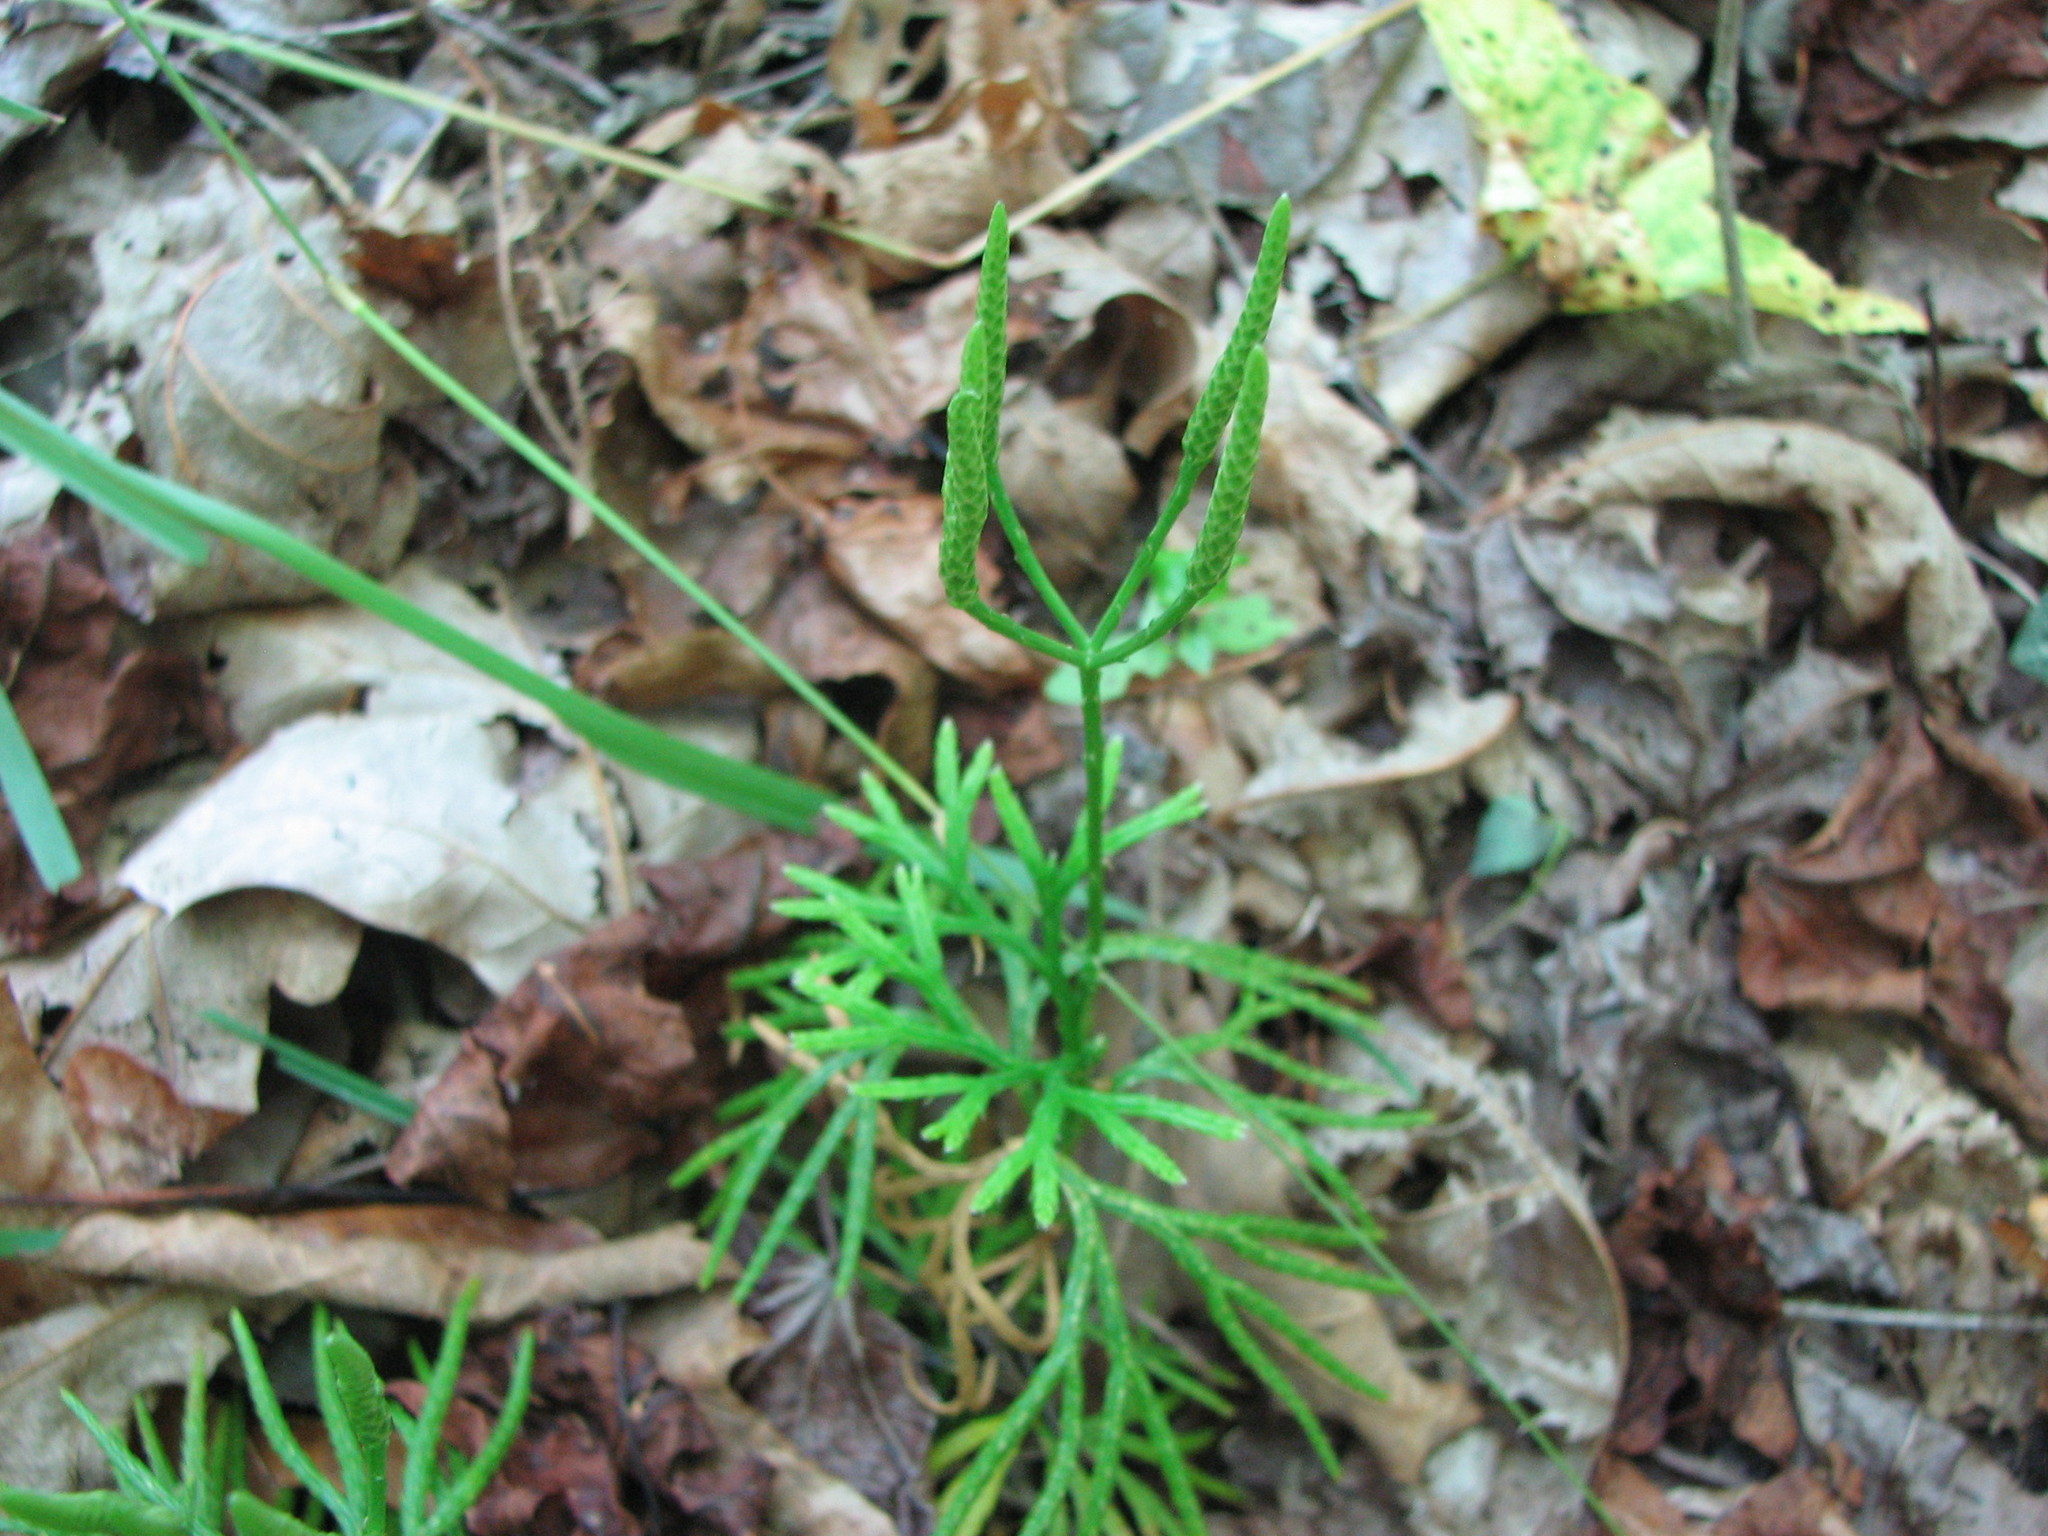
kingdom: Plantae
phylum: Tracheophyta
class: Lycopodiopsida
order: Lycopodiales
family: Lycopodiaceae
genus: Diphasiastrum
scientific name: Diphasiastrum digitatum
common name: Southern running-pine
